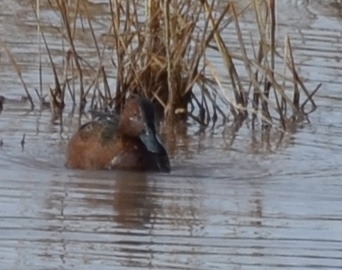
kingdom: Animalia
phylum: Chordata
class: Aves
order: Anseriformes
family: Anatidae
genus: Spatula
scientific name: Spatula cyanoptera
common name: Cinnamon teal
